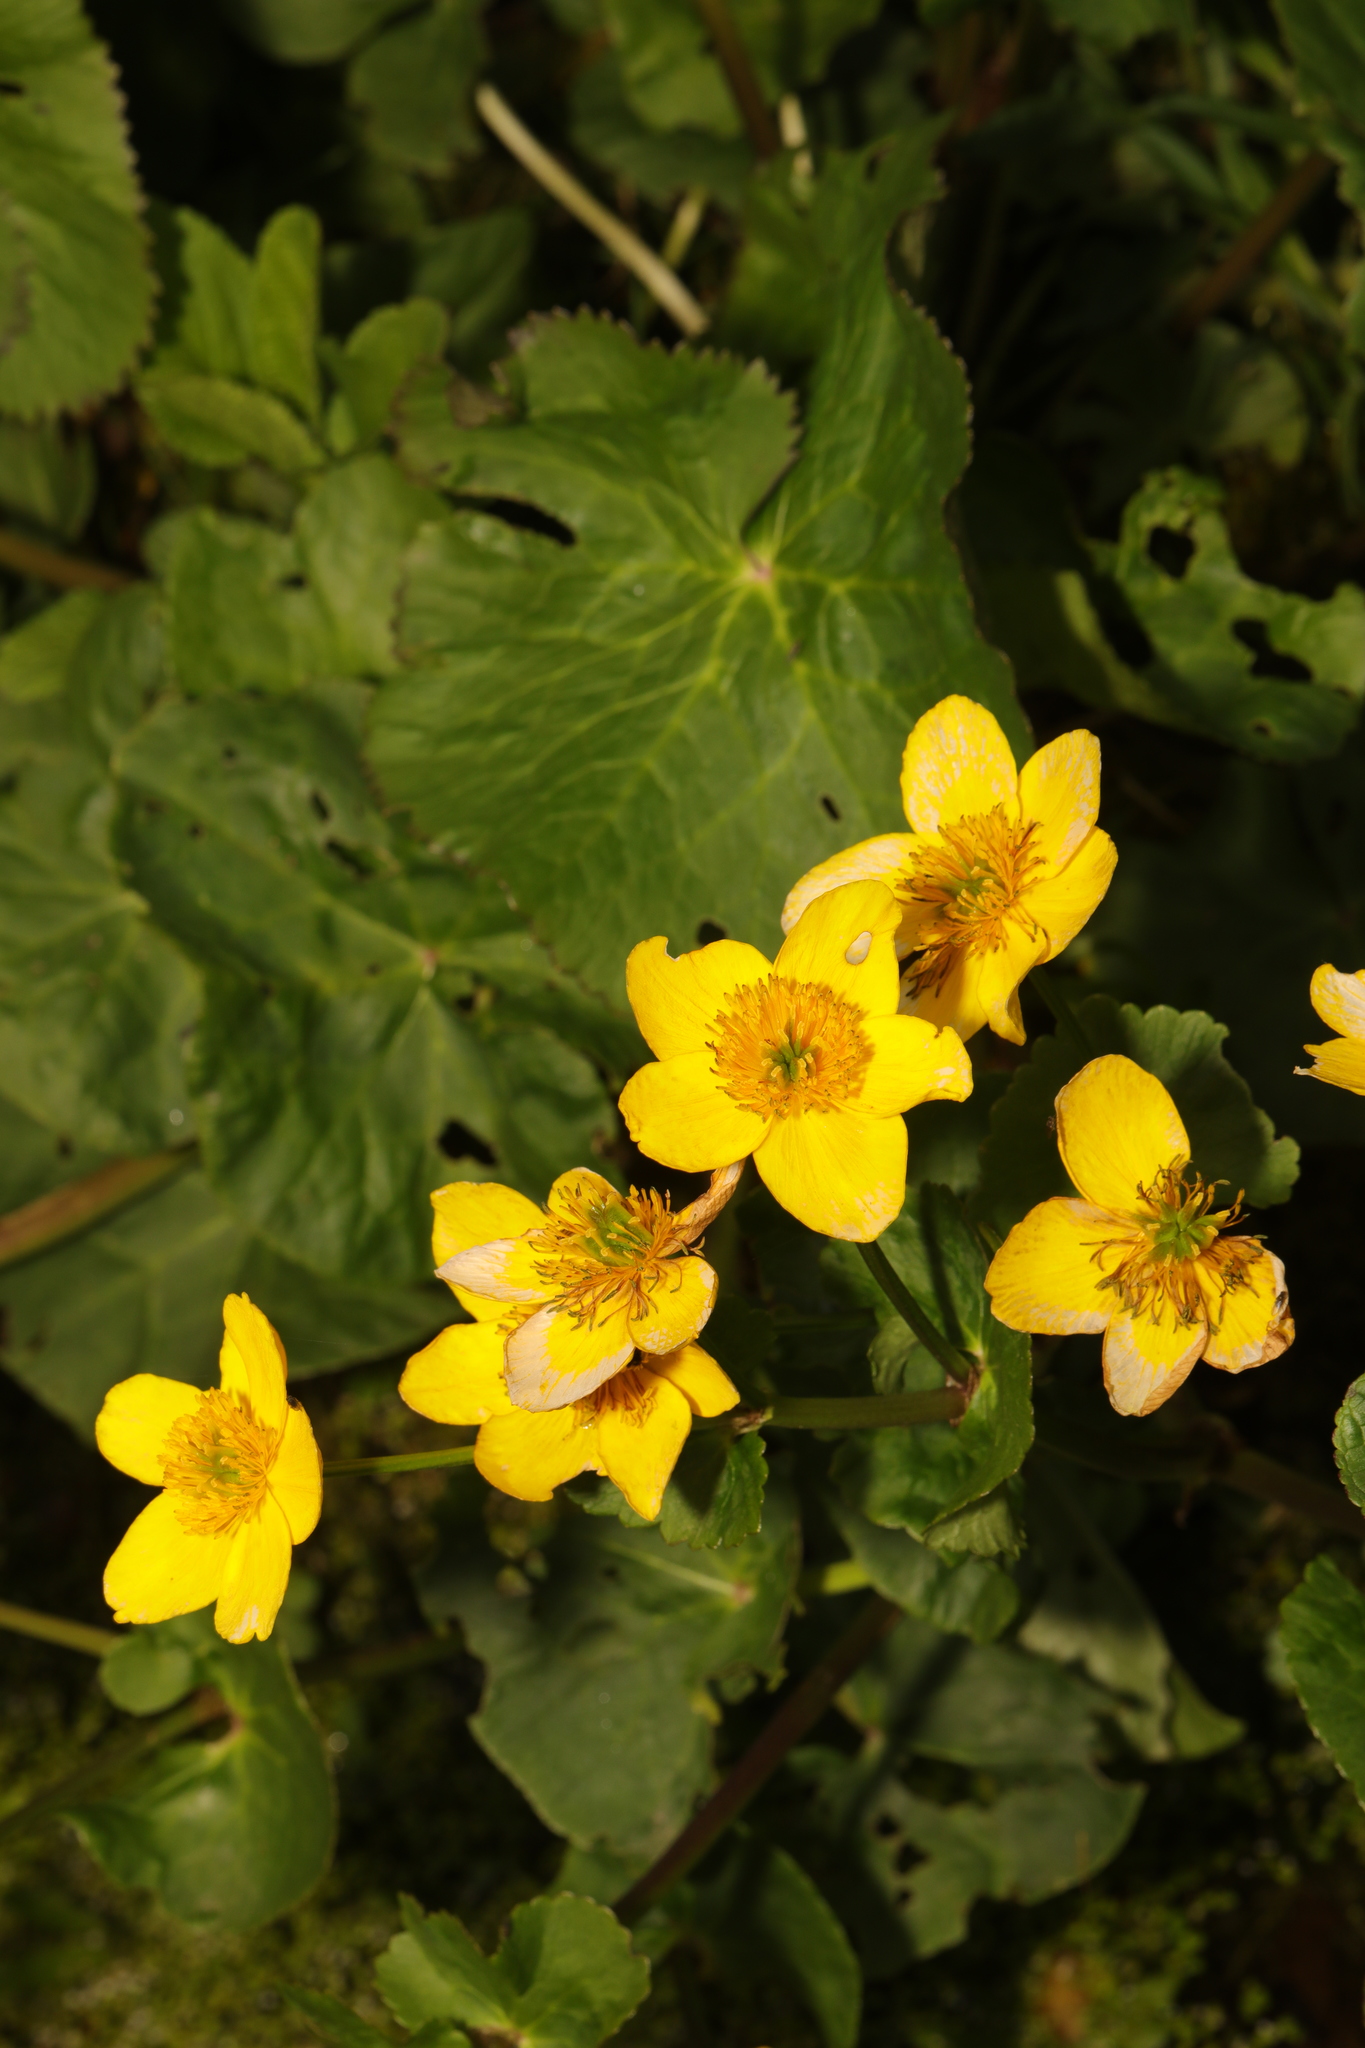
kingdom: Plantae
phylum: Tracheophyta
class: Magnoliopsida
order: Ranunculales
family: Ranunculaceae
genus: Caltha
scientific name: Caltha palustris
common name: Marsh marigold
